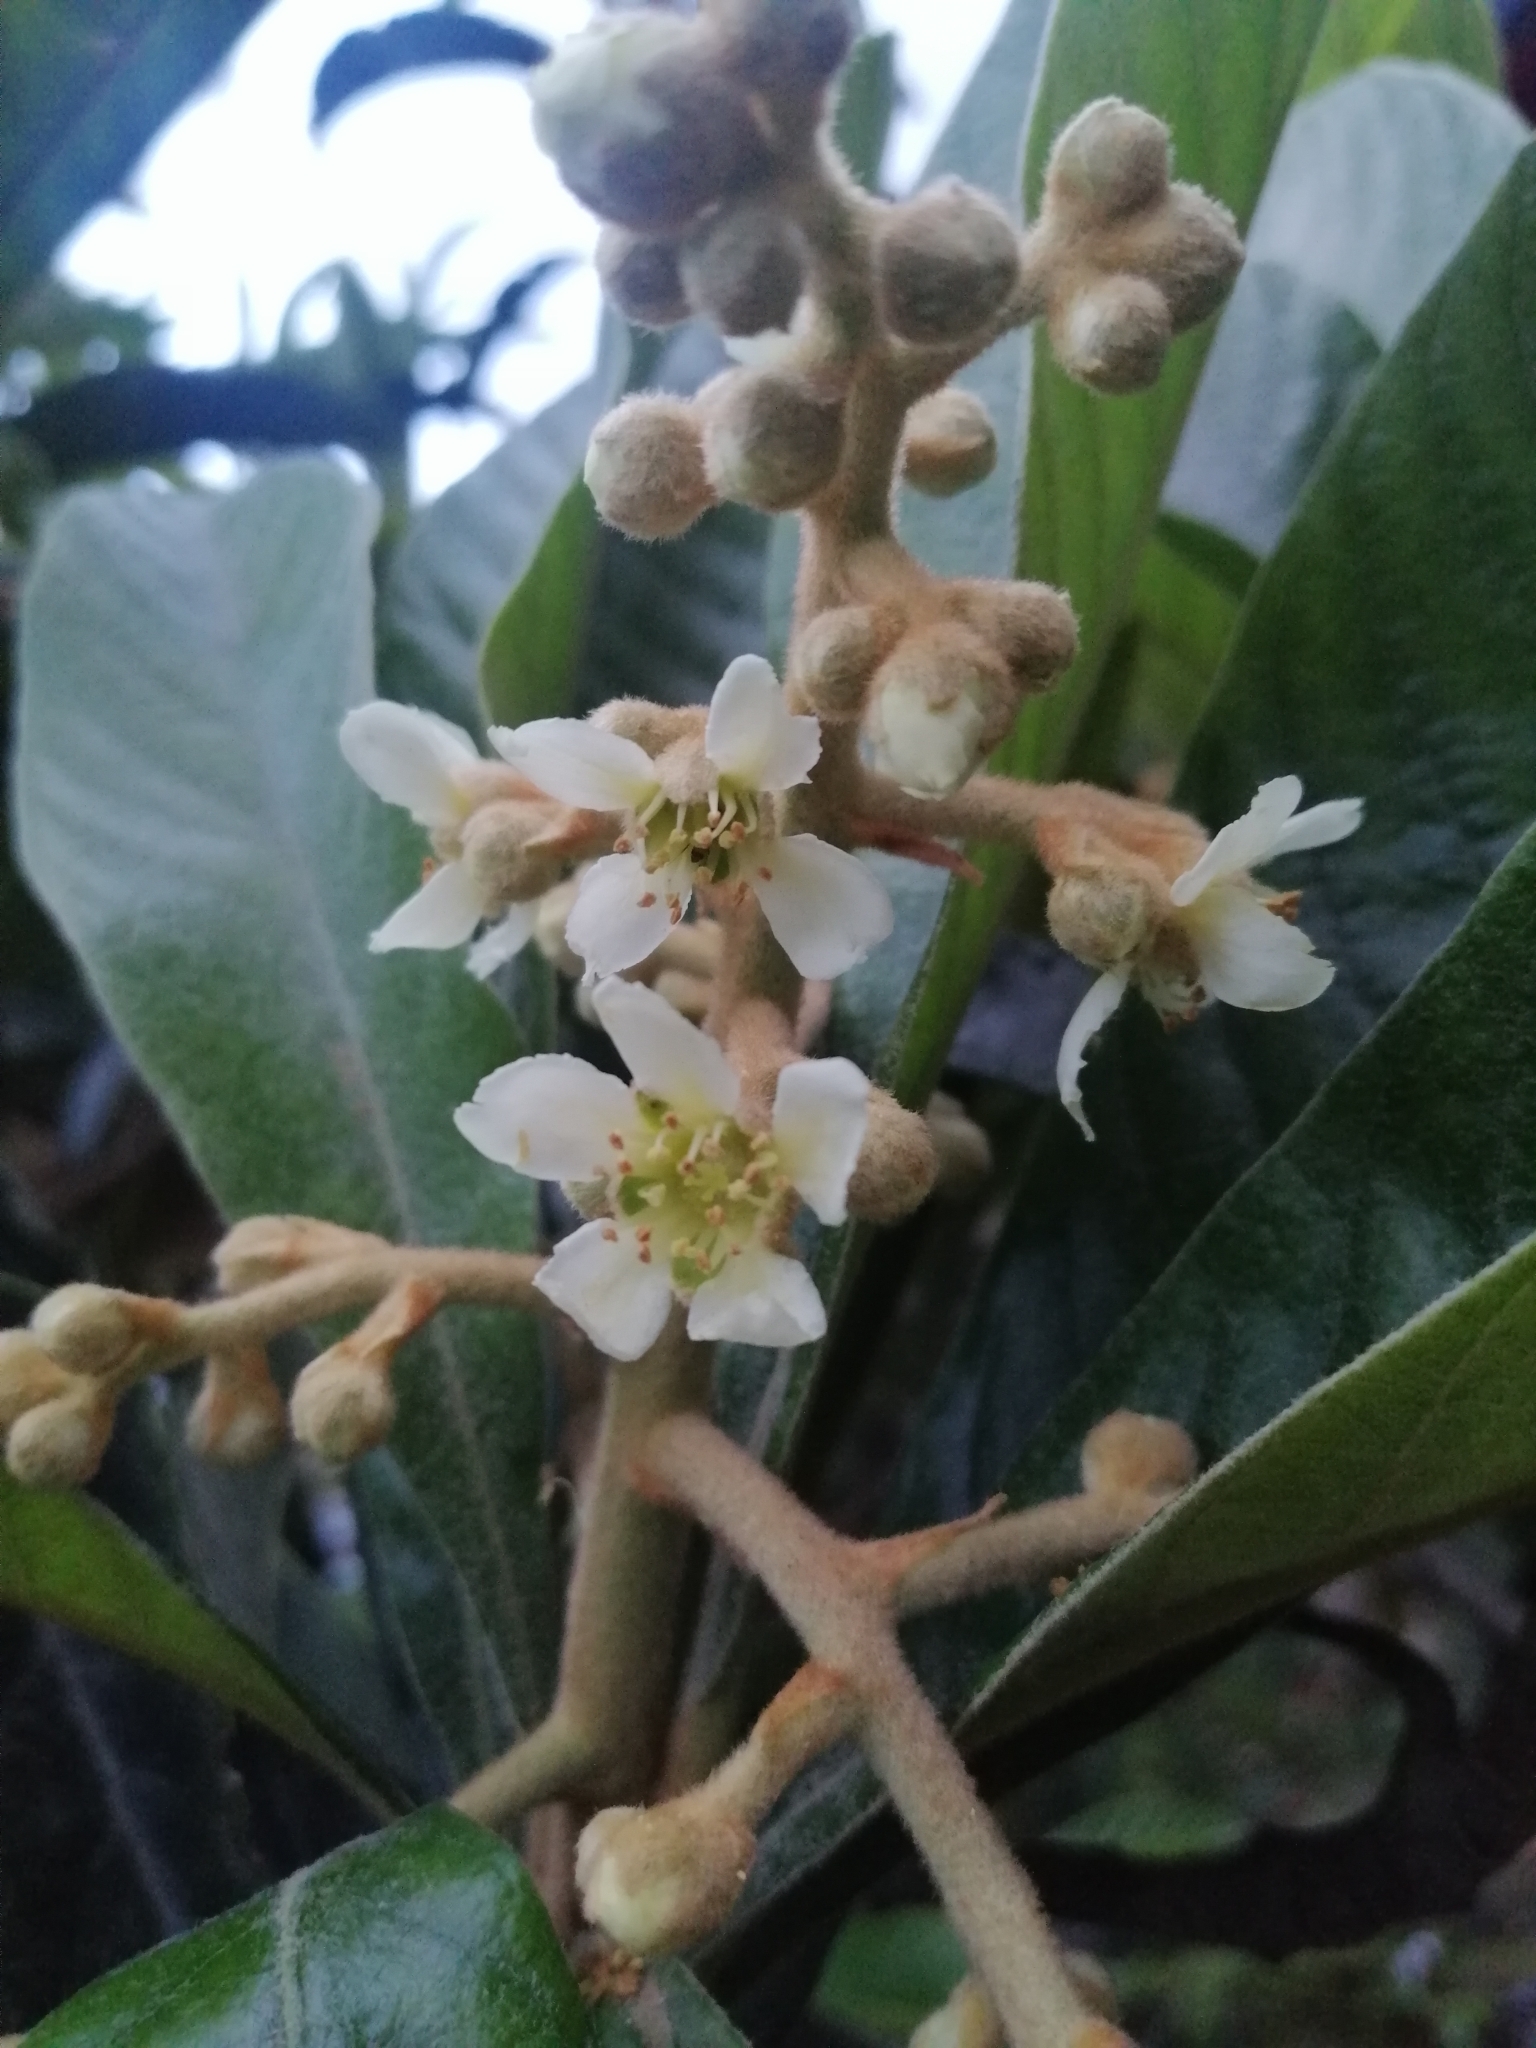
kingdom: Plantae
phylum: Tracheophyta
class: Magnoliopsida
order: Rosales
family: Rosaceae
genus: Rhaphiolepis
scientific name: Rhaphiolepis bibas
